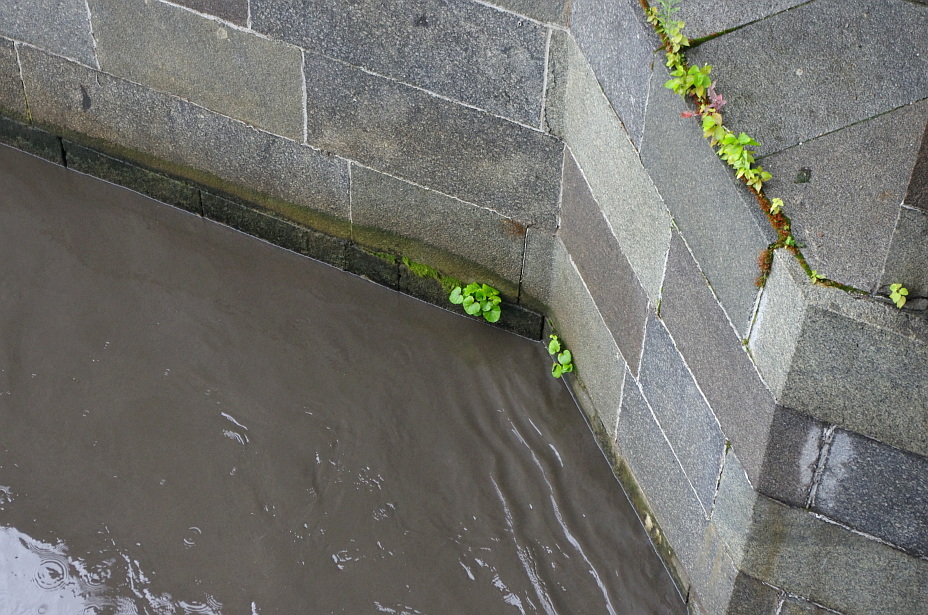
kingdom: Plantae
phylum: Tracheophyta
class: Magnoliopsida
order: Asterales
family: Asteraceae
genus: Tussilago
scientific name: Tussilago farfara
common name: Coltsfoot
